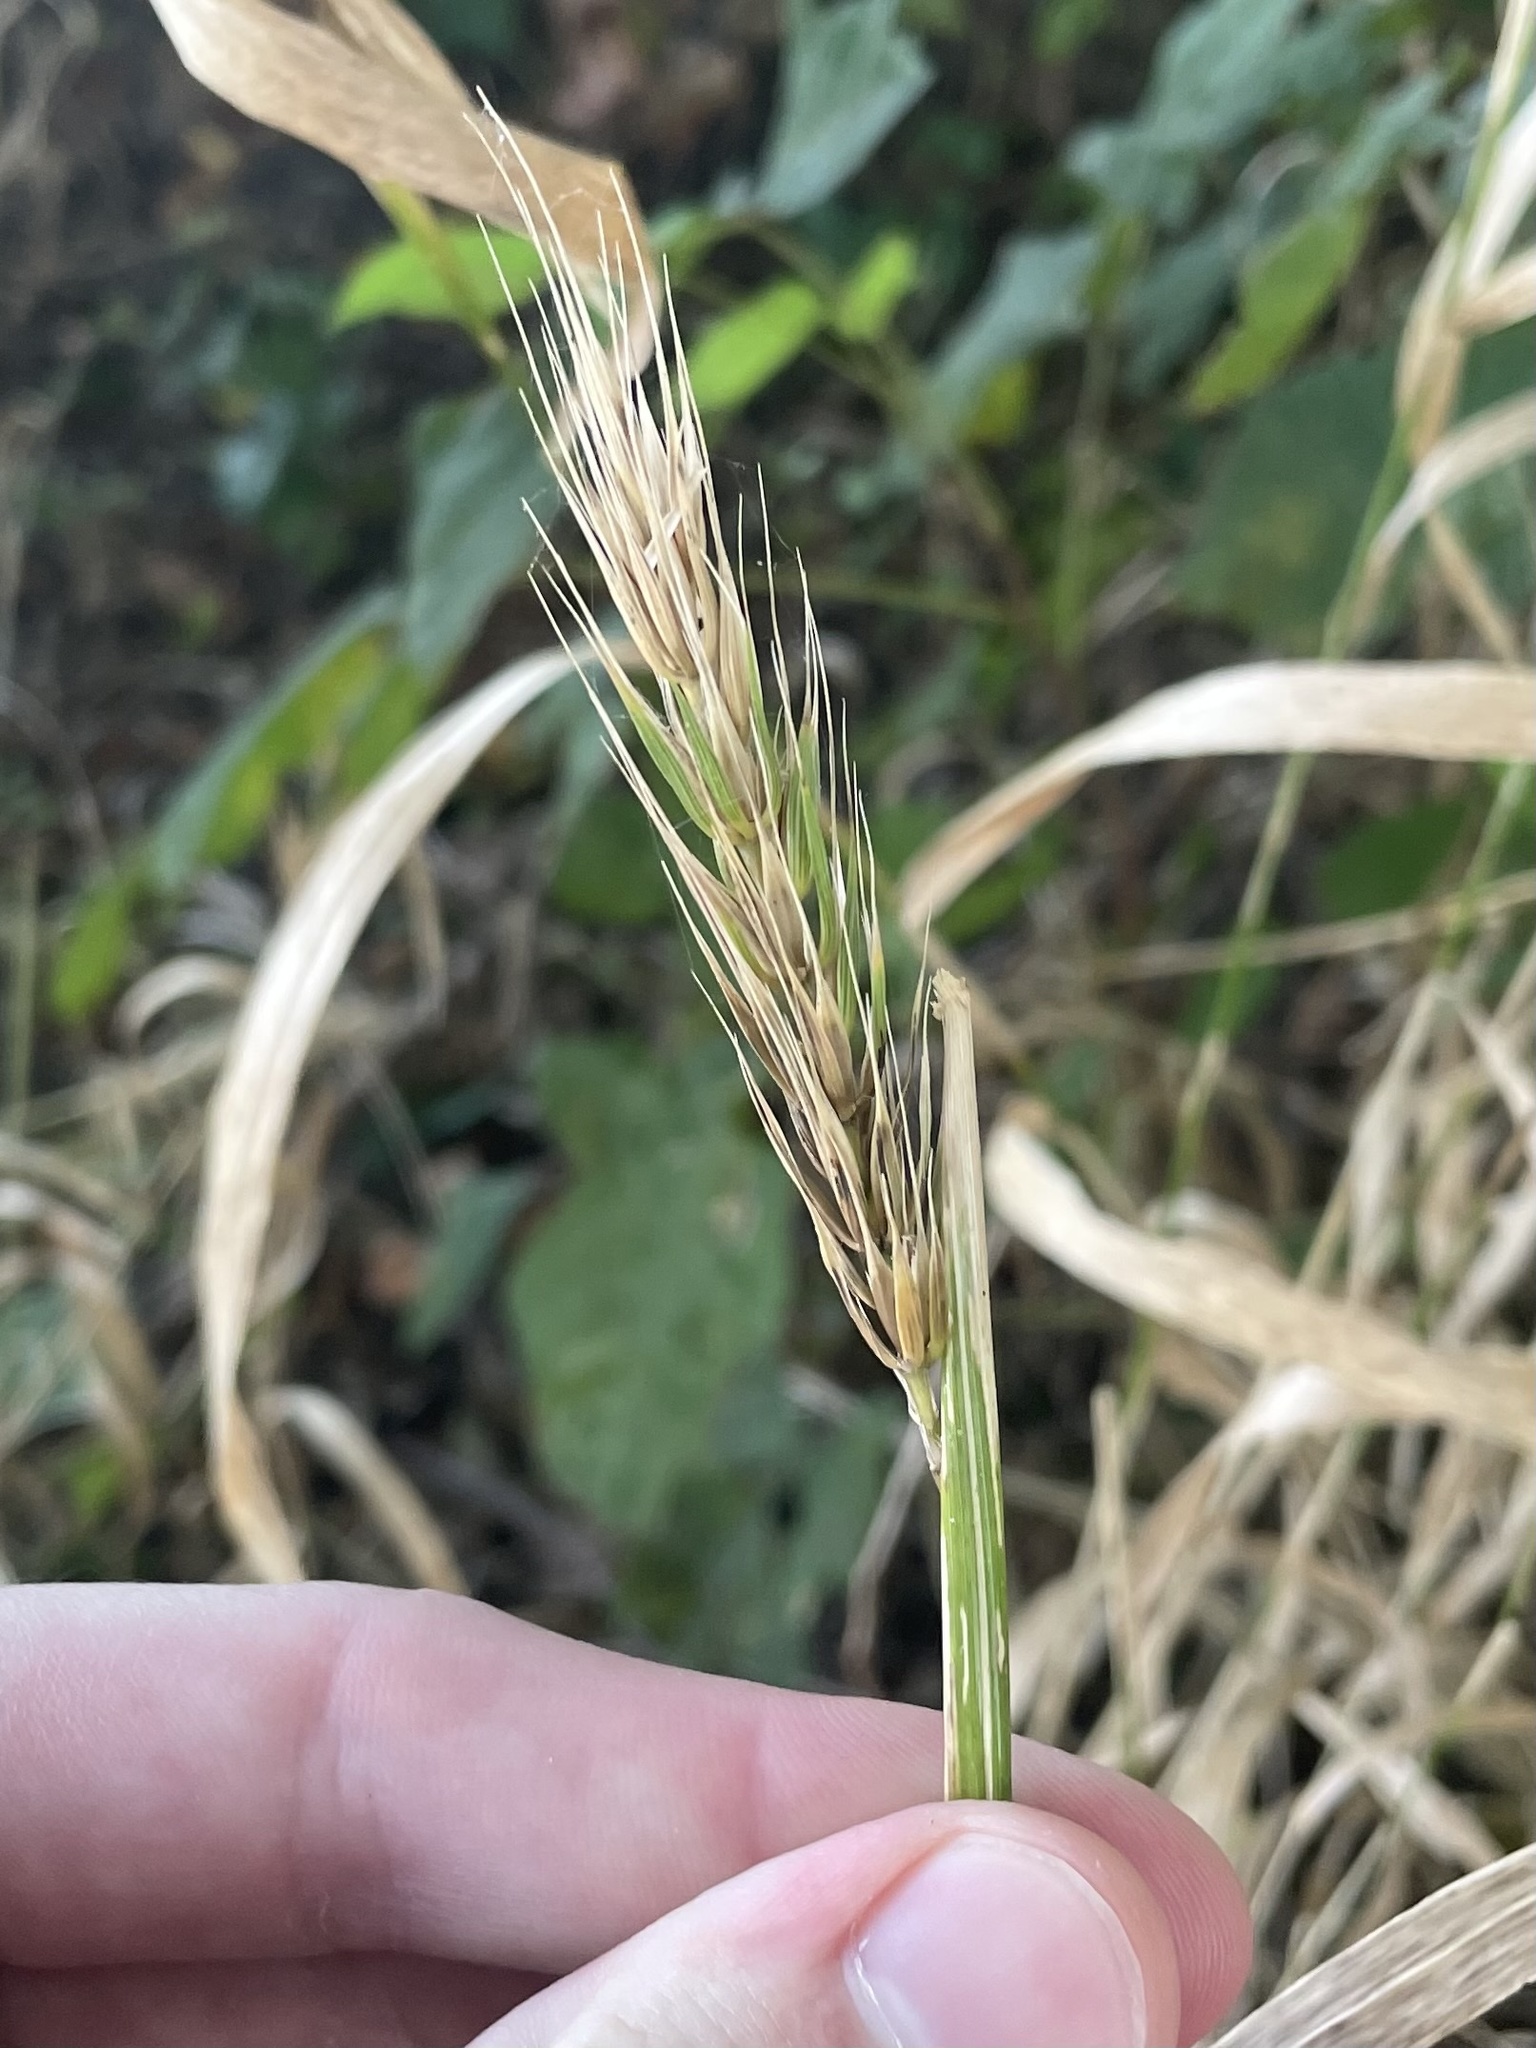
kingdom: Plantae
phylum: Tracheophyta
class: Liliopsida
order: Poales
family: Poaceae
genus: Elymus
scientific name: Elymus virginicus
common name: Common eastern wildrye
